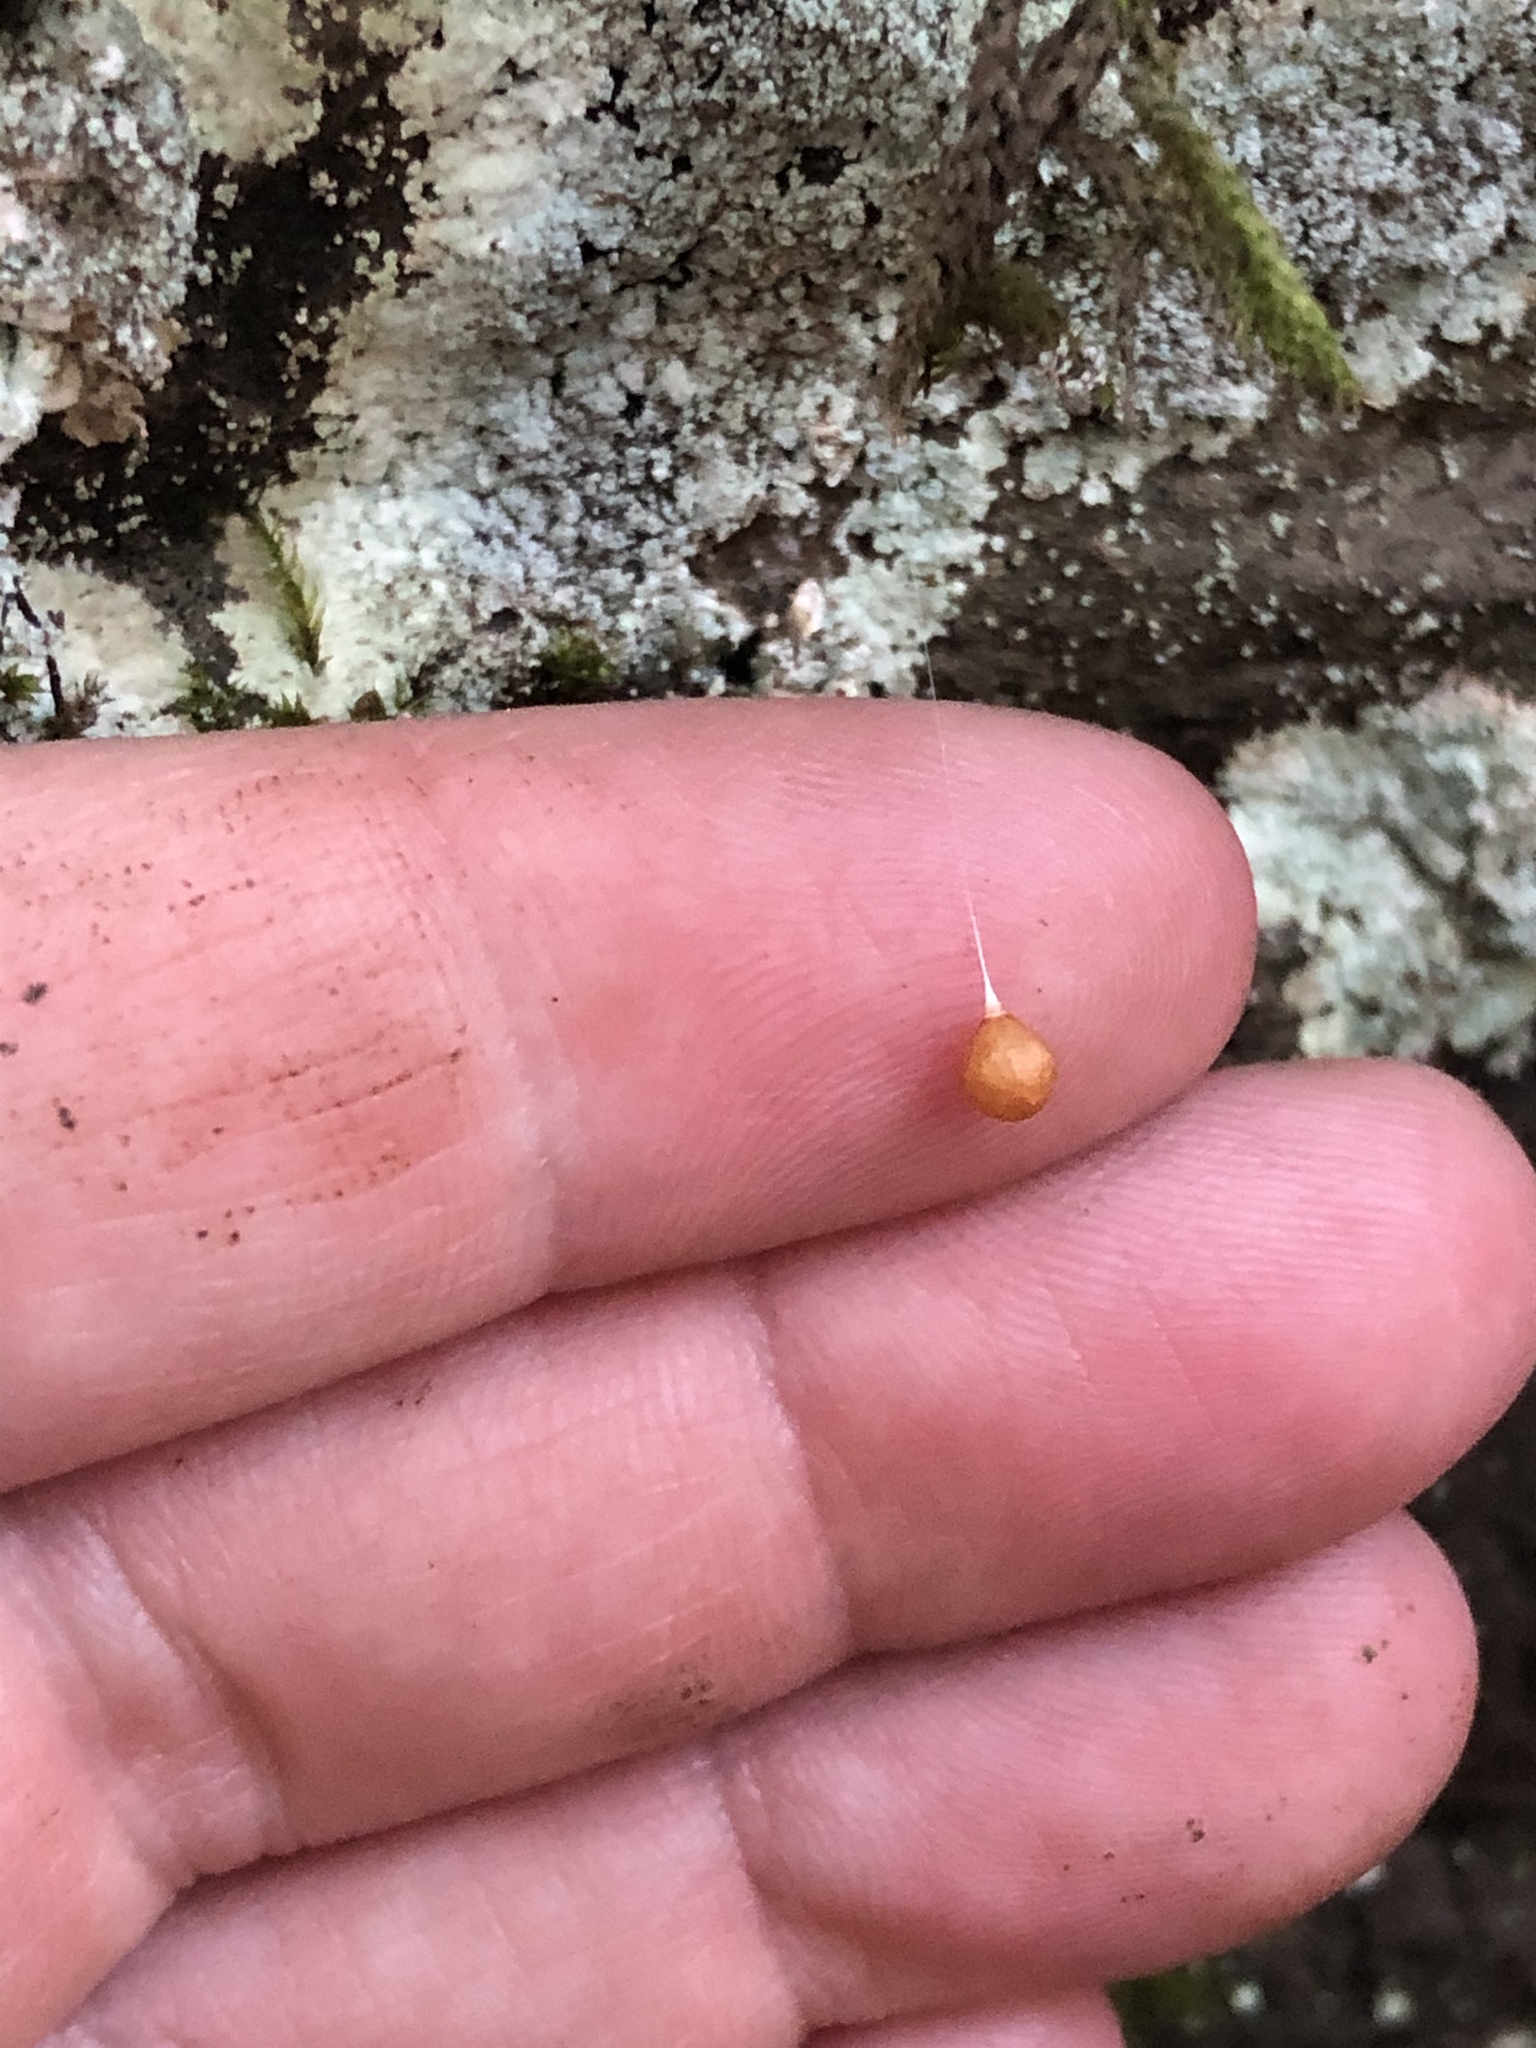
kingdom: Animalia
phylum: Arthropoda
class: Arachnida
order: Araneae
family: Theridiosomatidae
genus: Theridiosoma
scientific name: Theridiosoma gemmosum
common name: Ray spider
